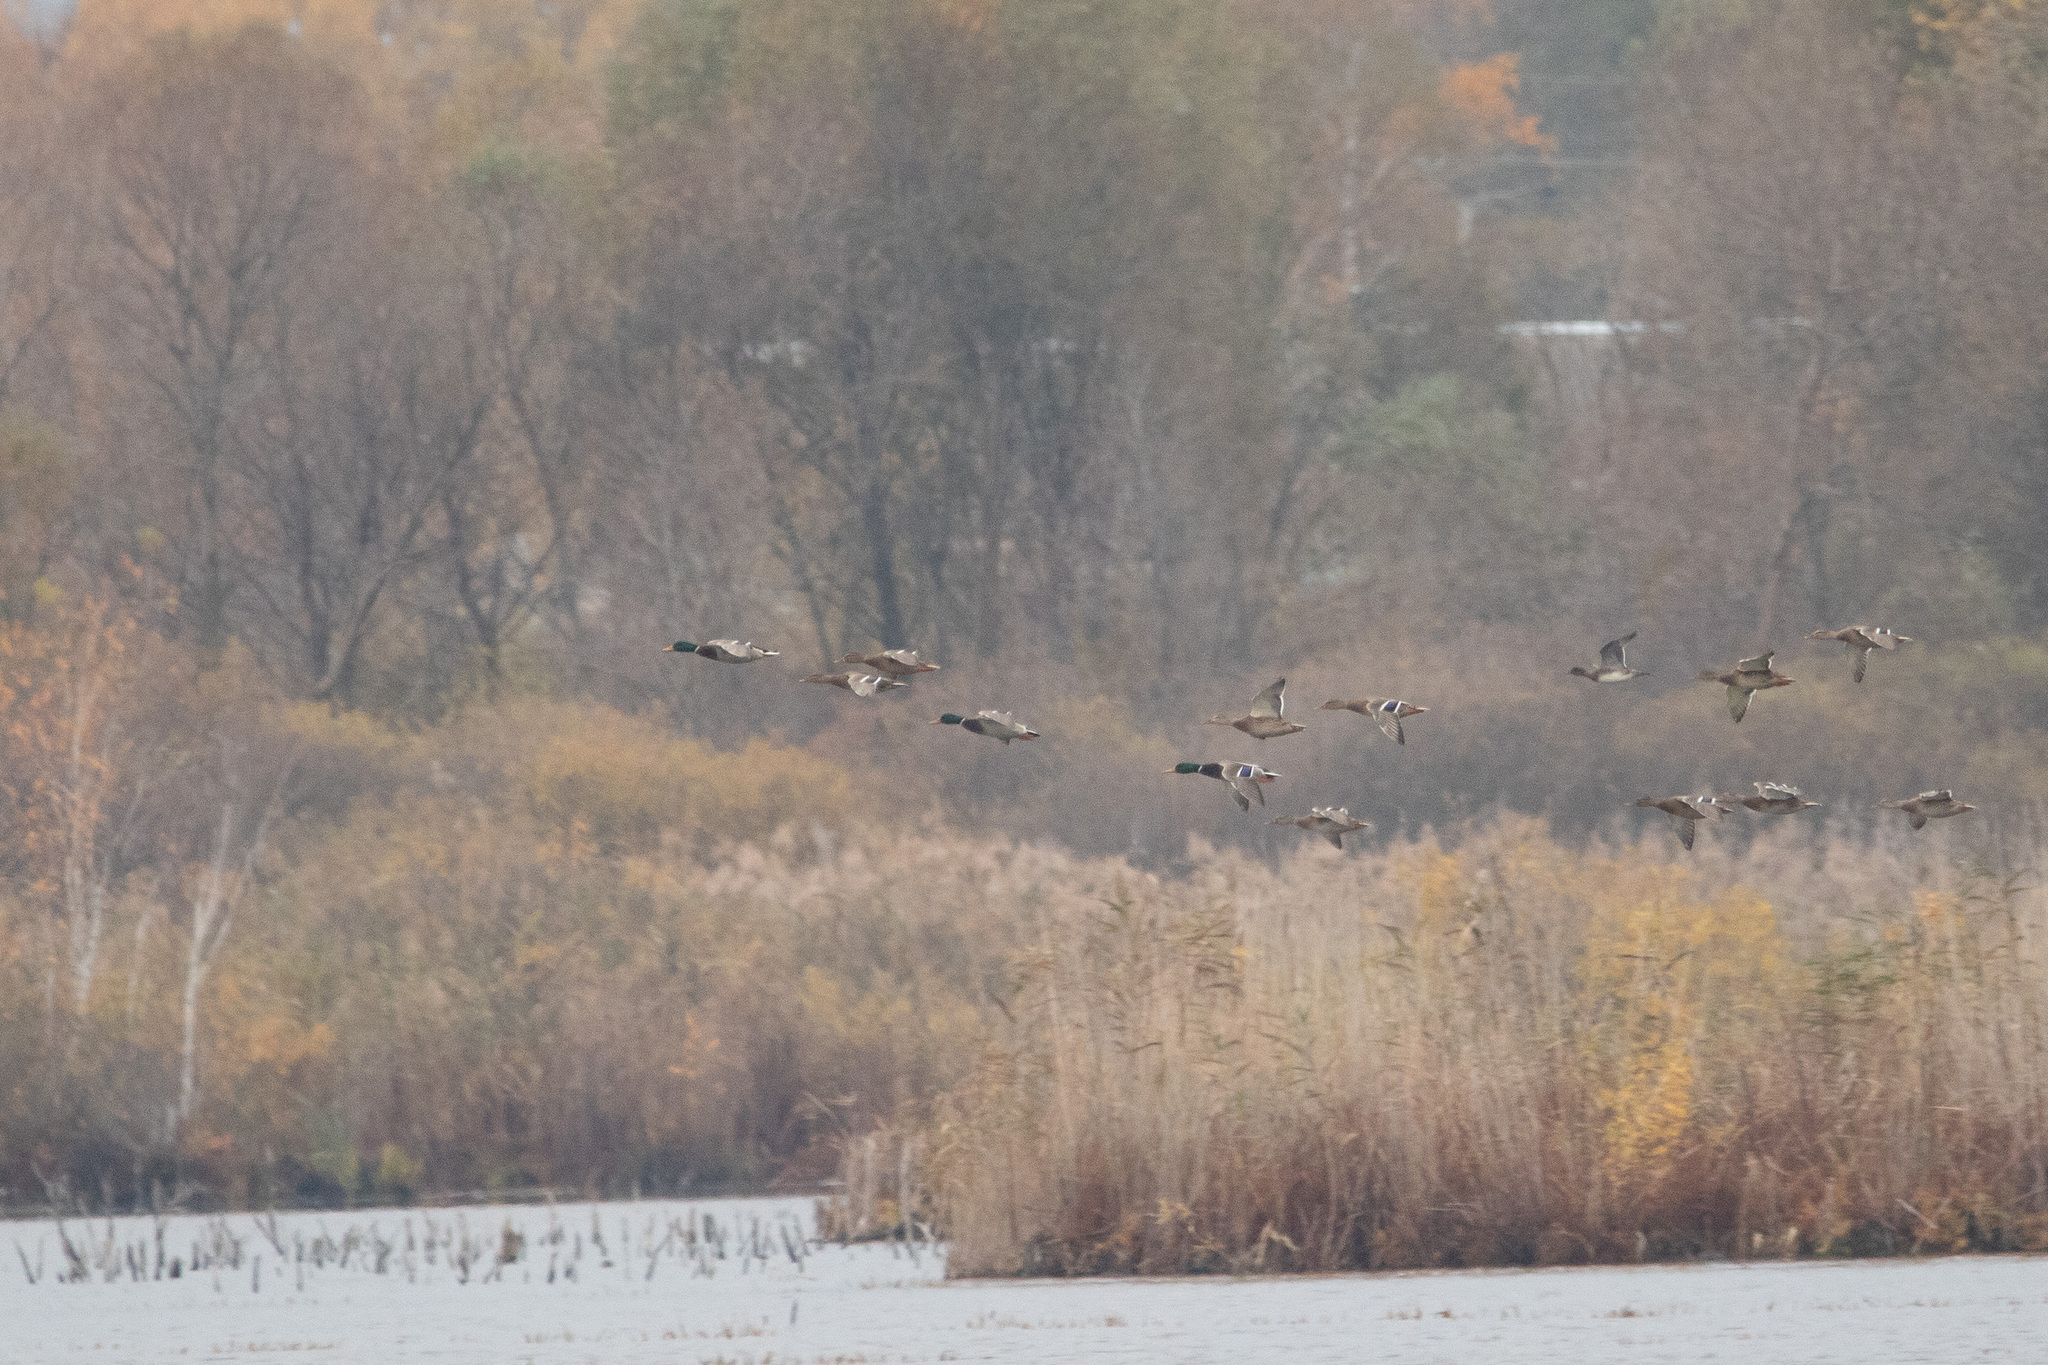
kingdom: Animalia
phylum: Chordata
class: Aves
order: Anseriformes
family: Anatidae
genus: Anas
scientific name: Anas platyrhynchos
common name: Mallard
